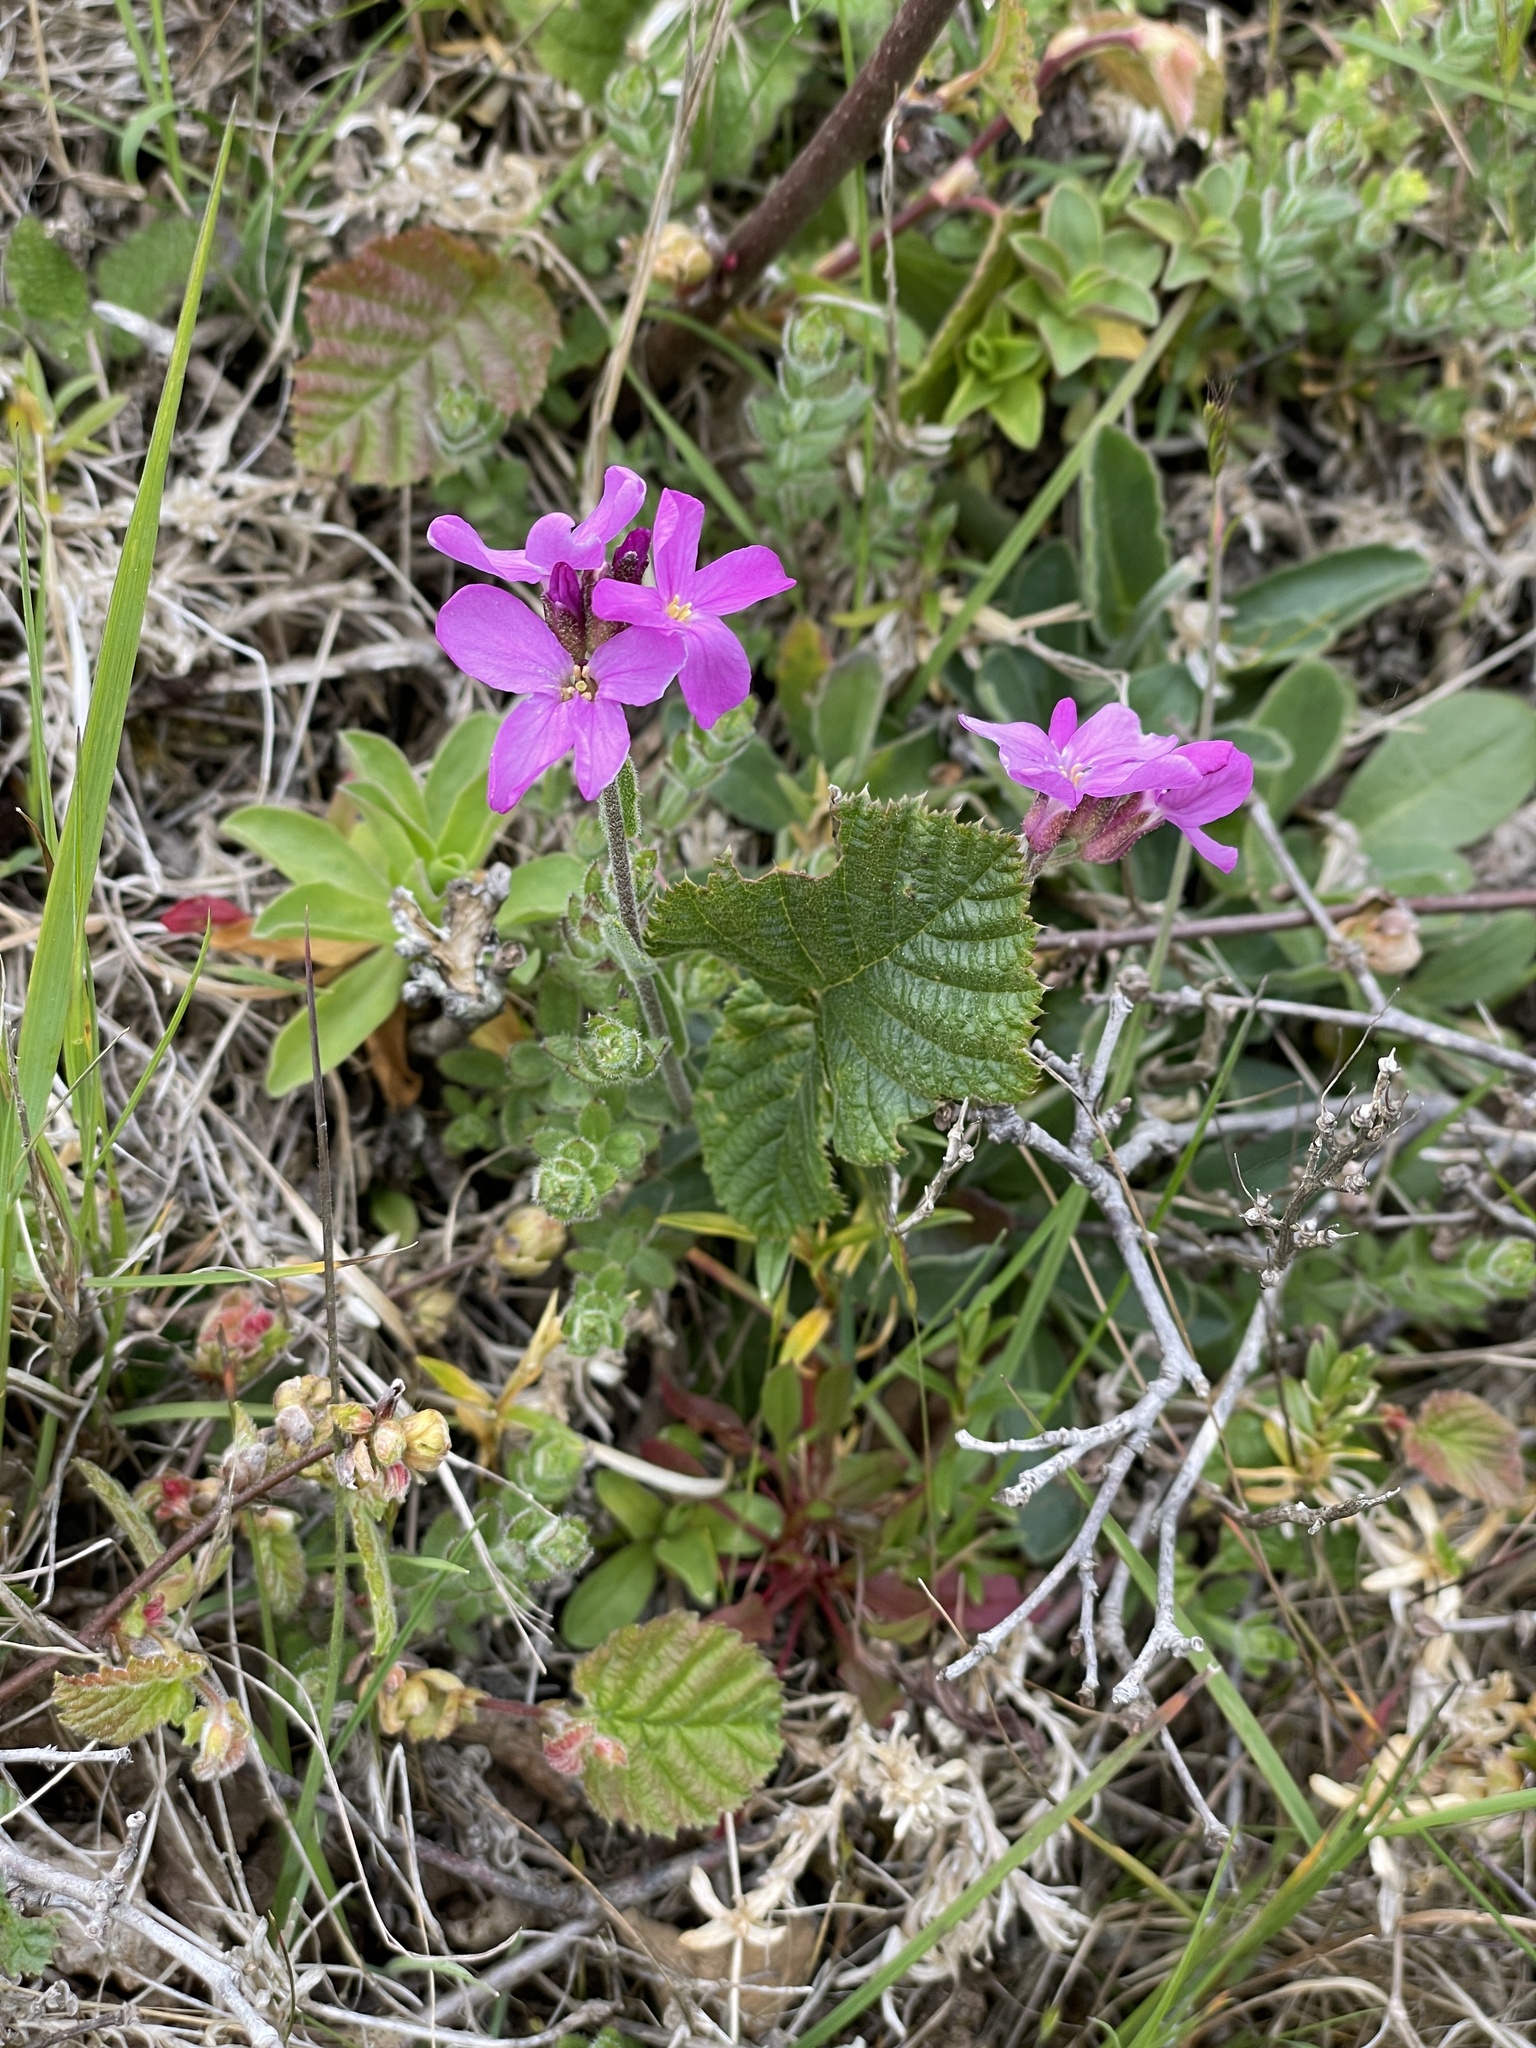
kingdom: Plantae
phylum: Tracheophyta
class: Magnoliopsida
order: Brassicales
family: Brassicaceae
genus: Arabis
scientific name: Arabis blepharophylla
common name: Rose rockcress
